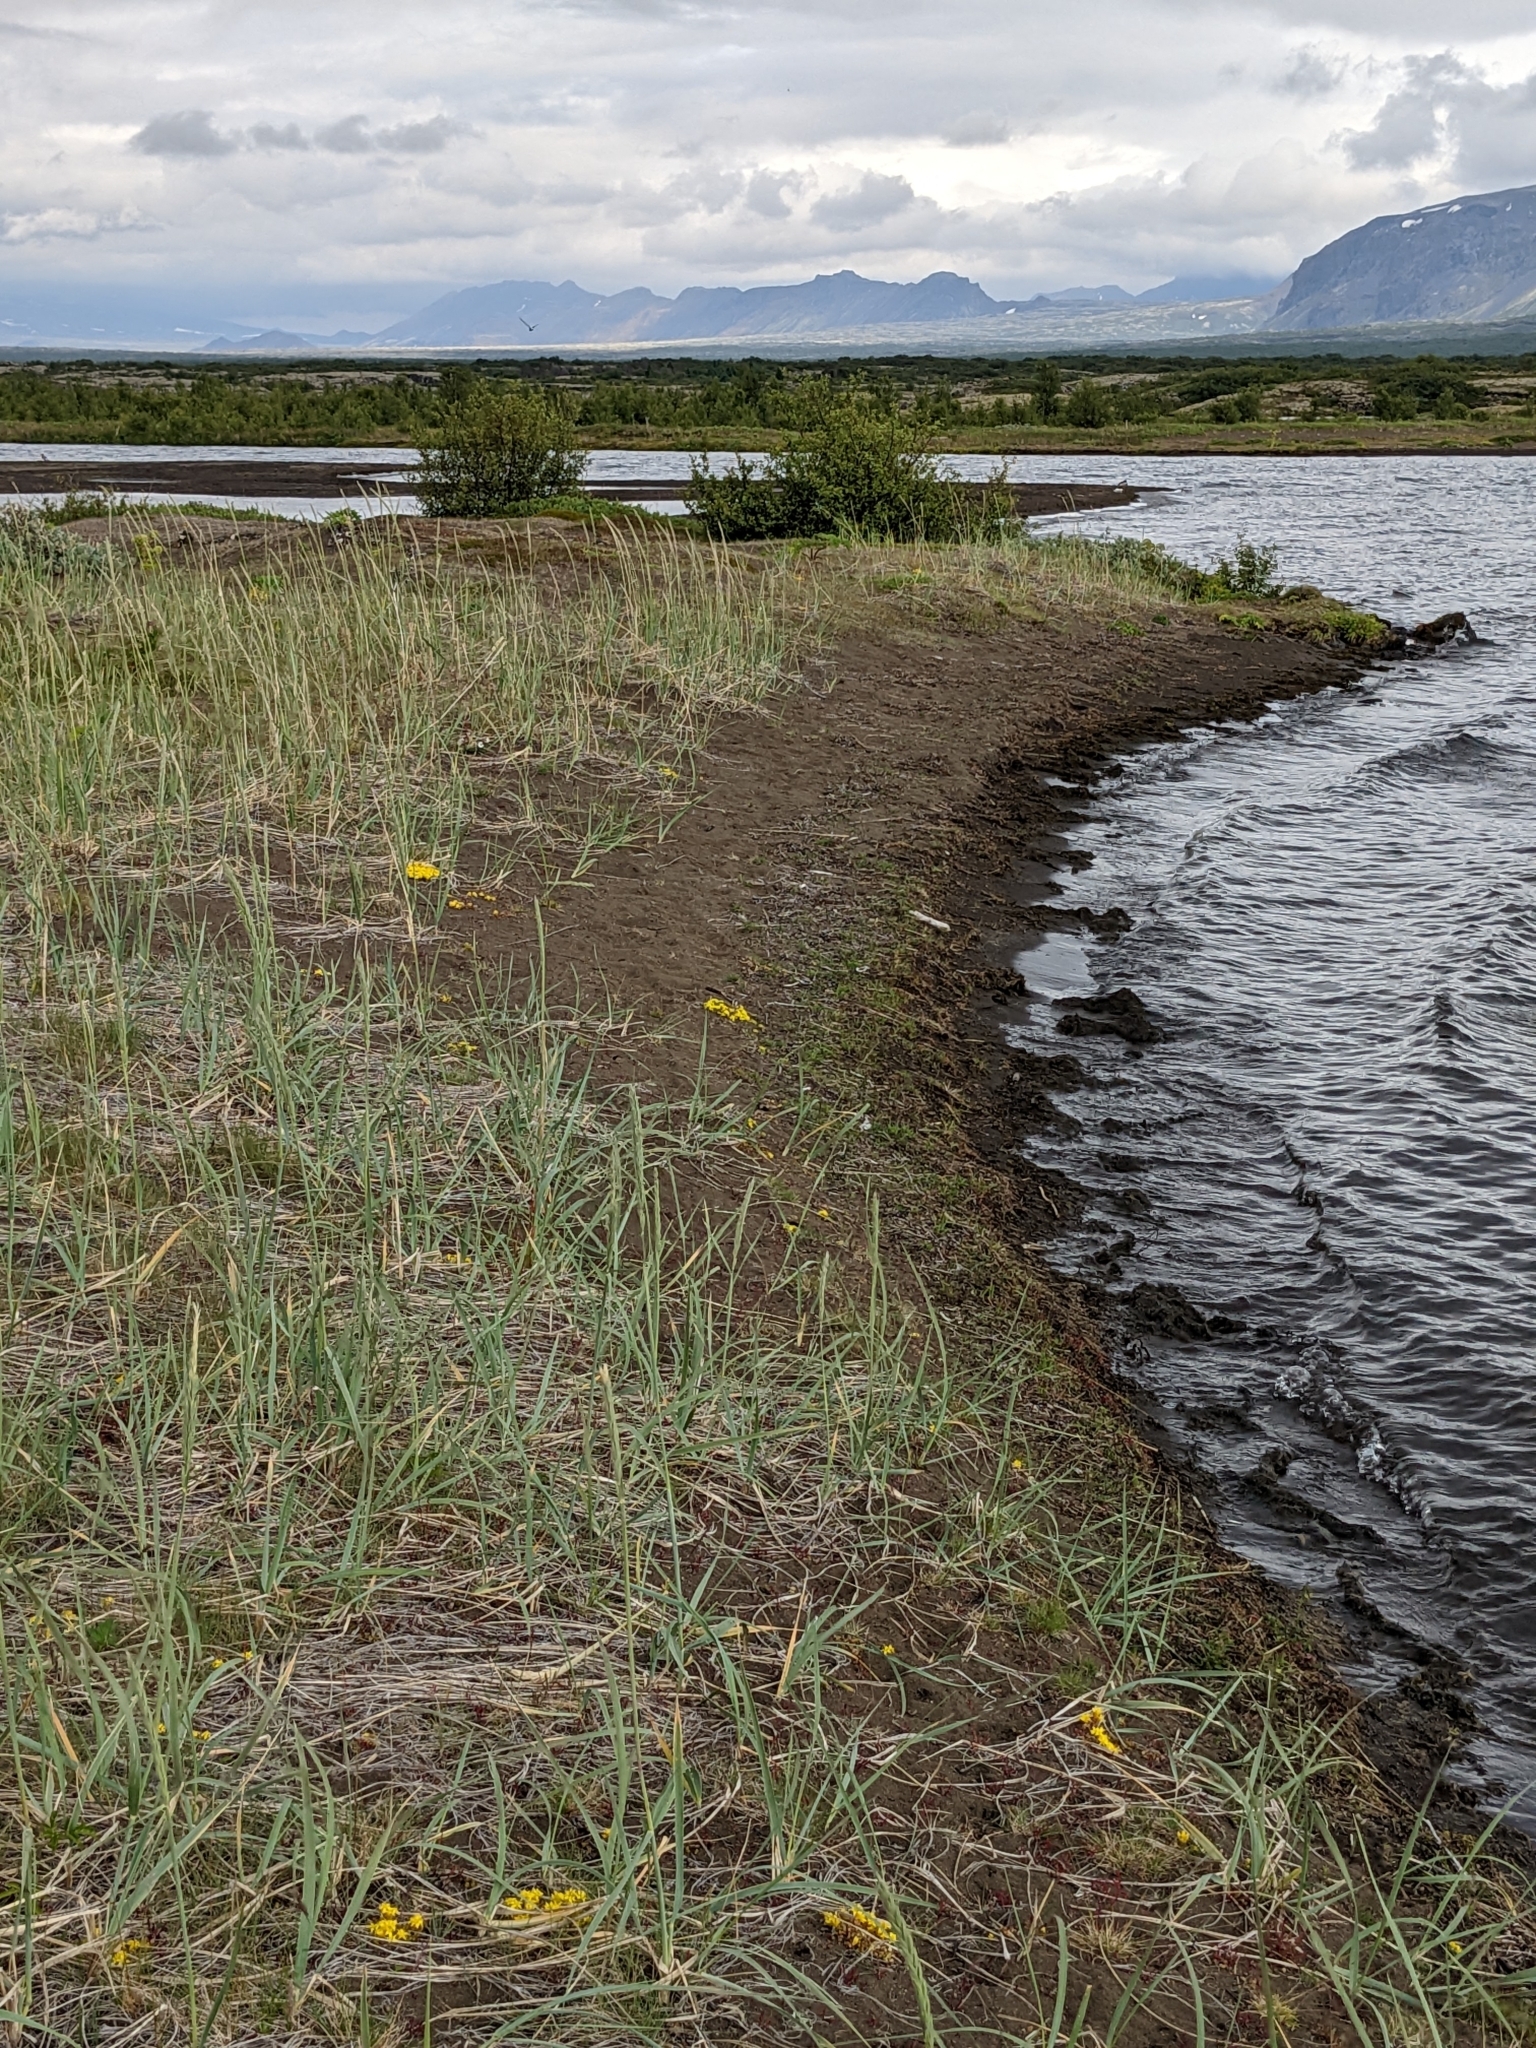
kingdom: Plantae
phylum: Tracheophyta
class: Magnoliopsida
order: Saxifragales
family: Crassulaceae
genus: Sedum
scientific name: Sedum acre
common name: Biting stonecrop
